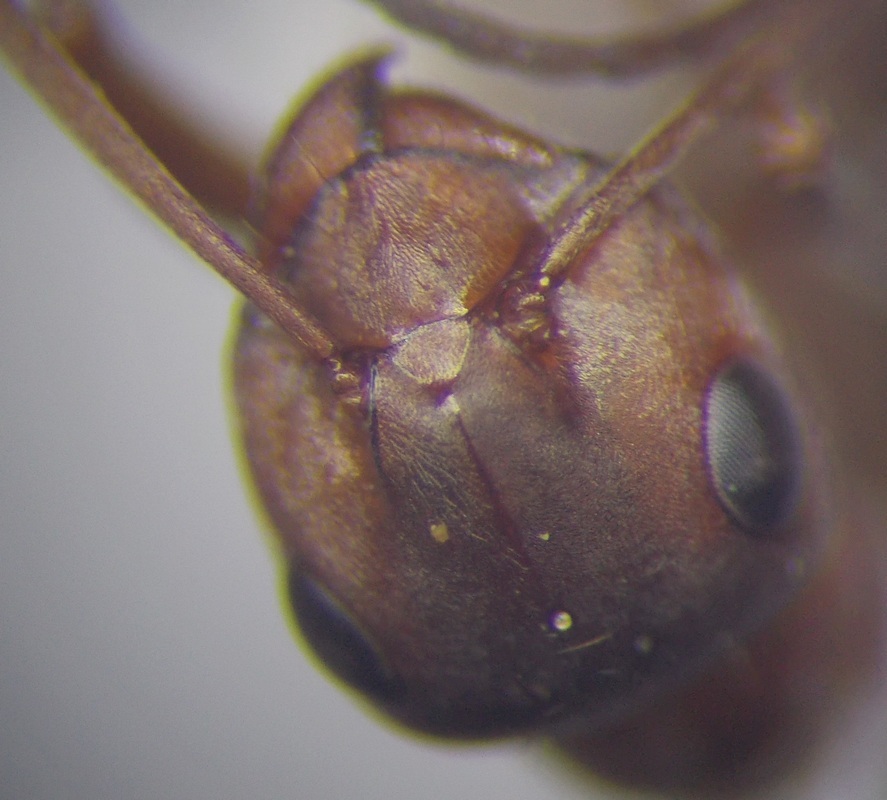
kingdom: Animalia
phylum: Arthropoda
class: Insecta
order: Hymenoptera
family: Formicidae
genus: Formica
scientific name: Formica subpilosa
